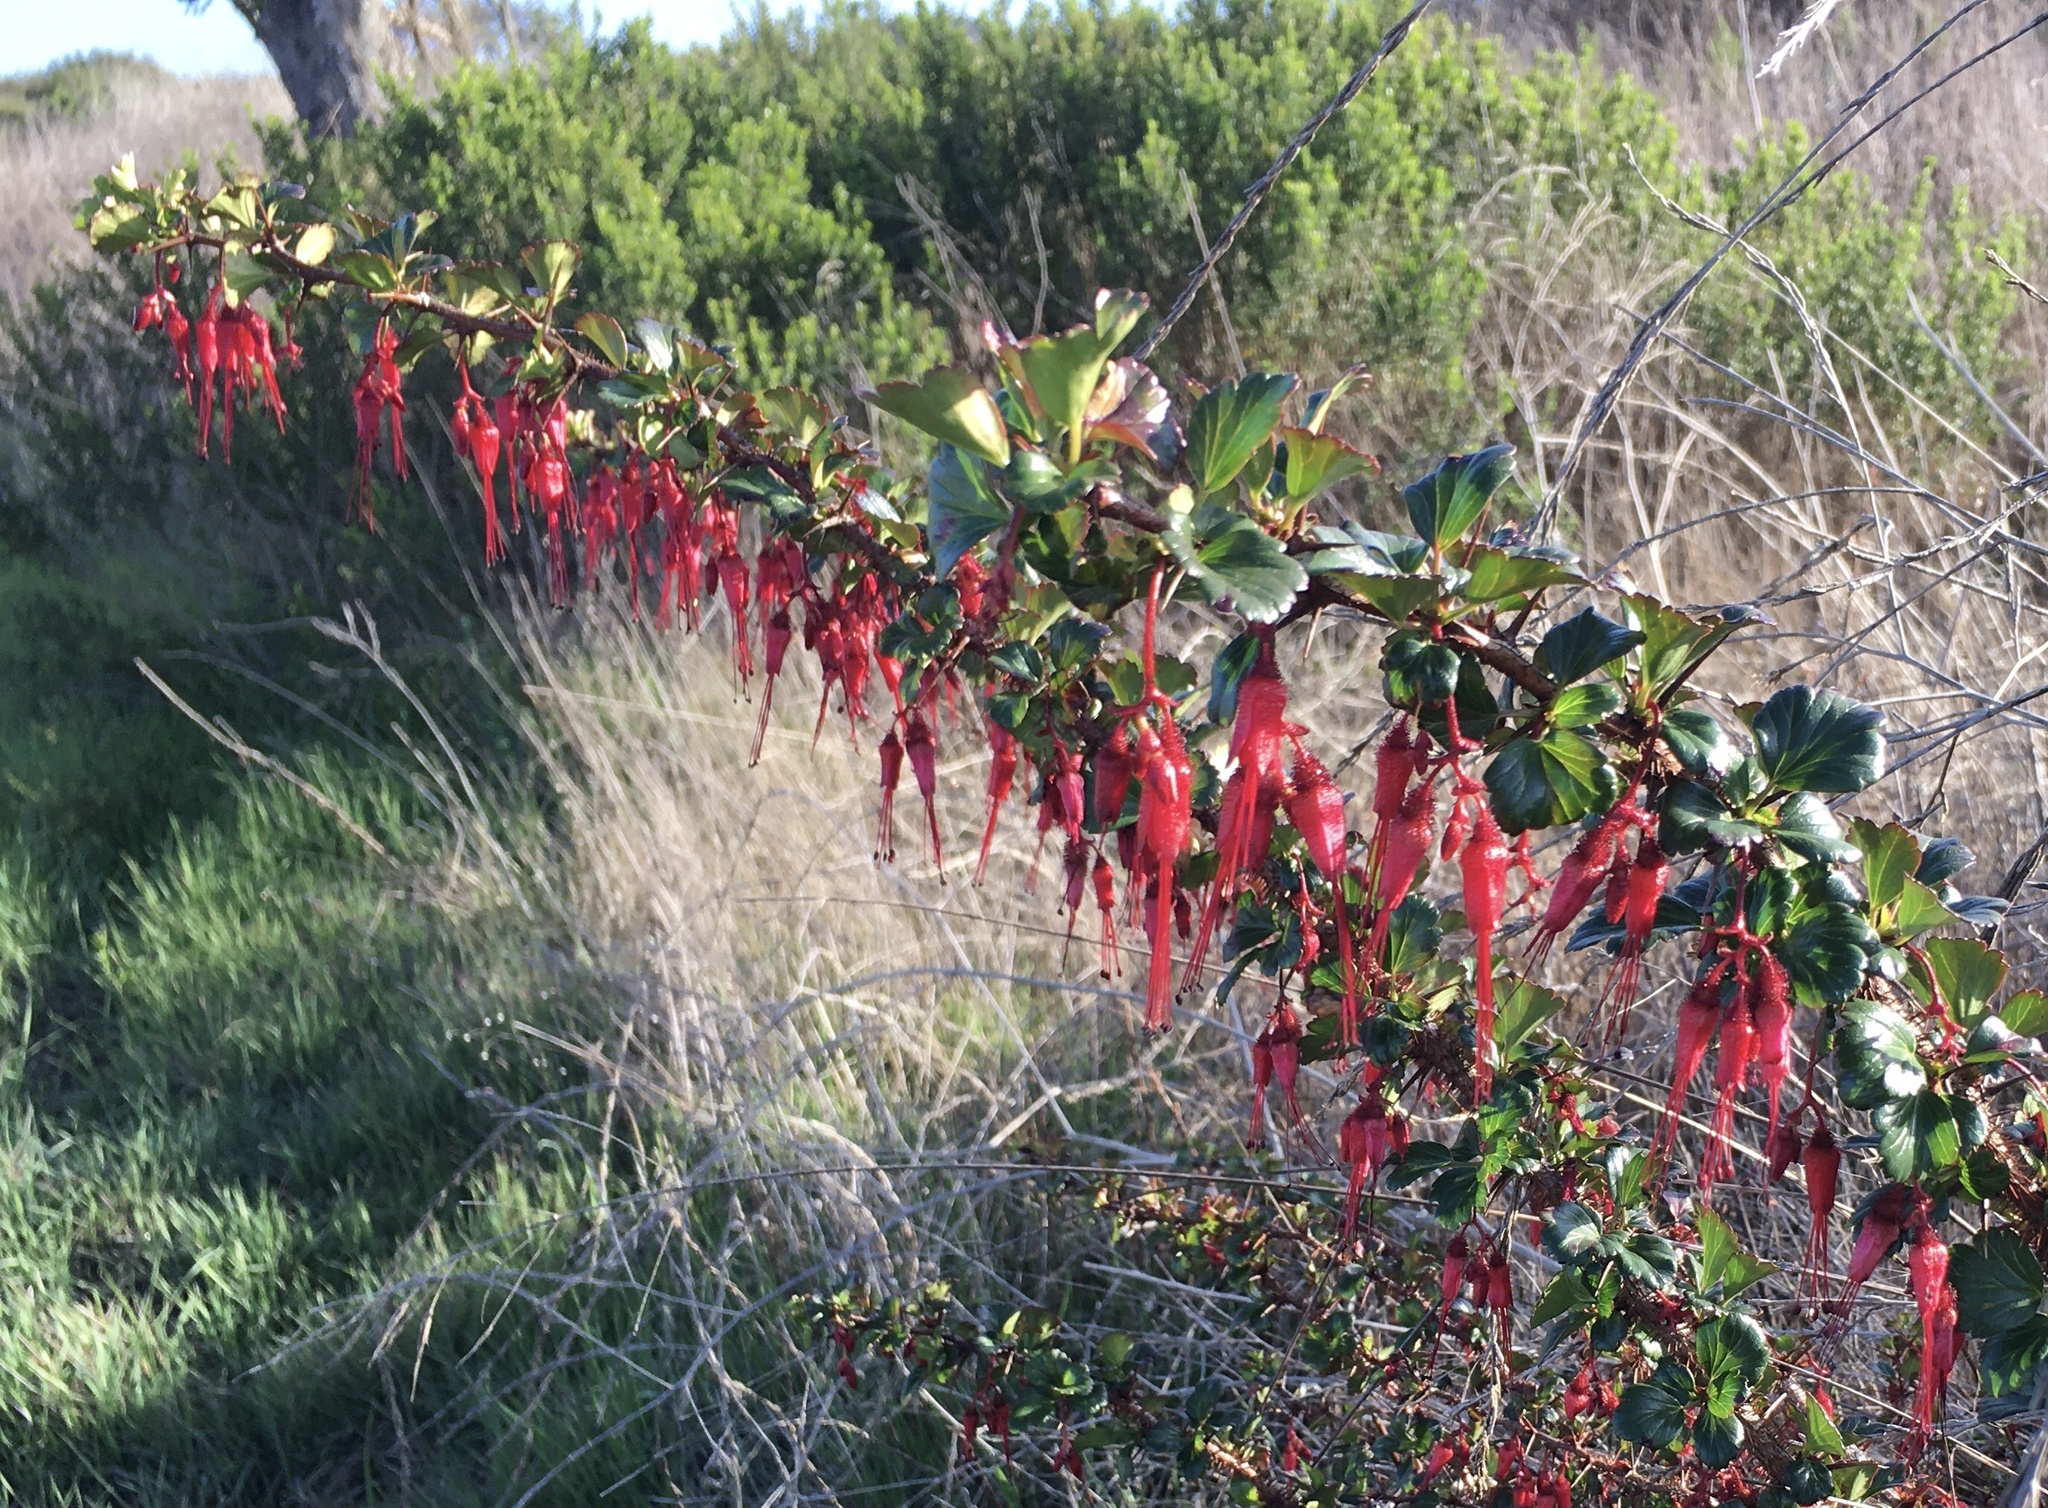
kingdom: Plantae
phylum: Tracheophyta
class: Magnoliopsida
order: Saxifragales
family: Grossulariaceae
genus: Ribes
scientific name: Ribes speciosum
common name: Fuchsia-flower gooseberry
